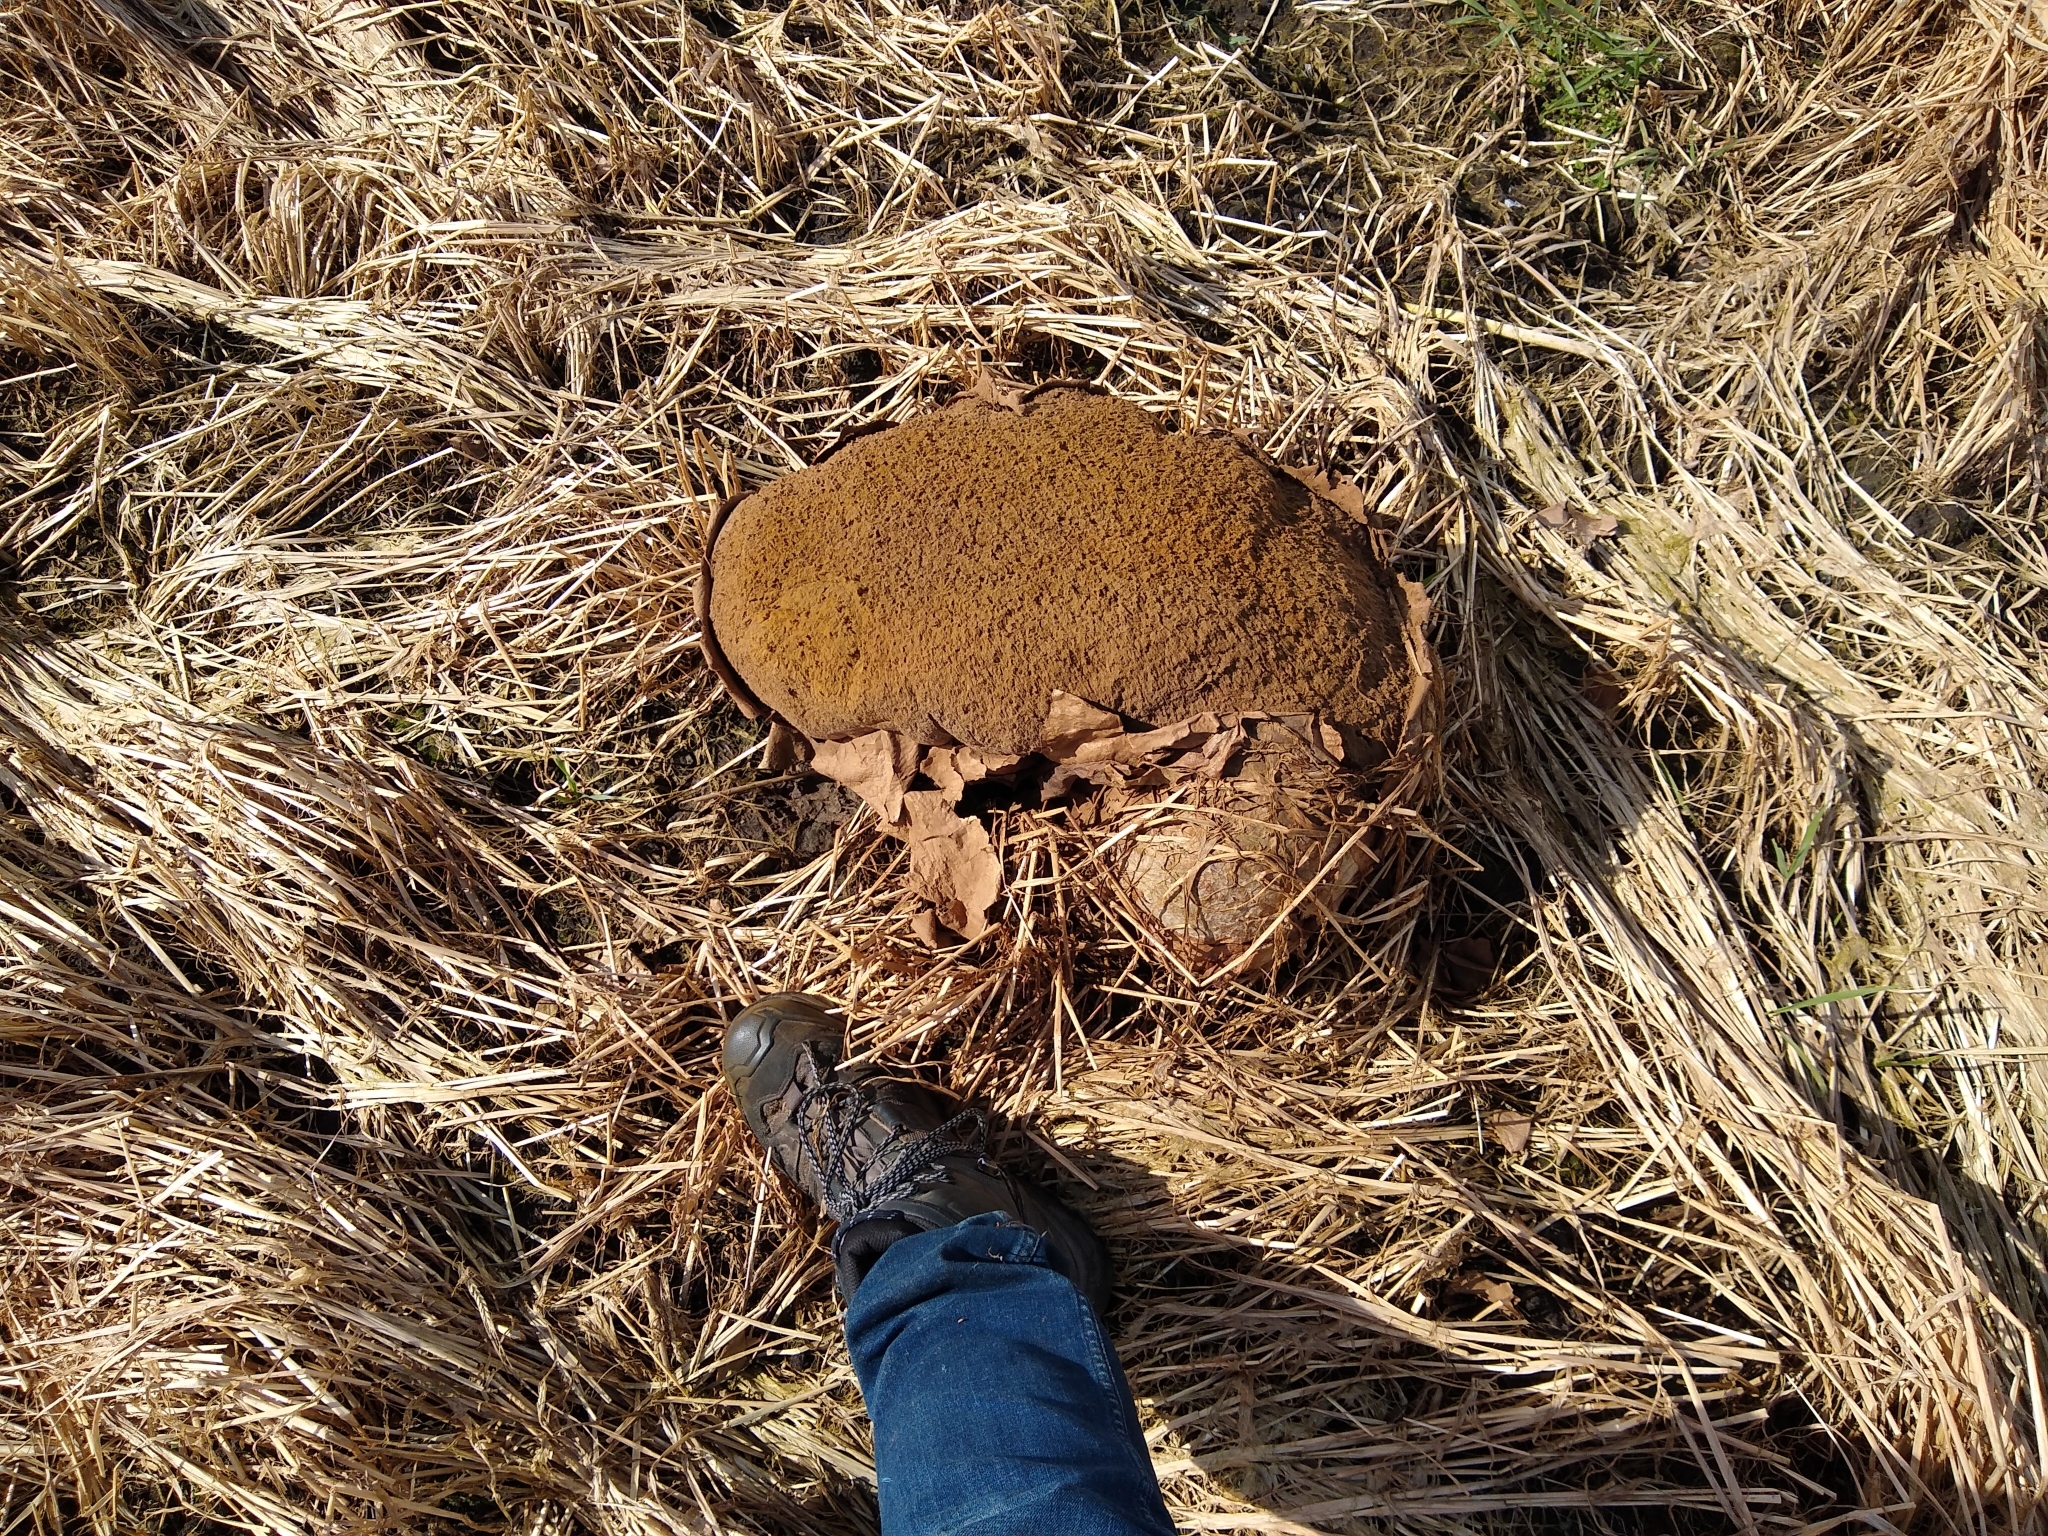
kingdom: Fungi
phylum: Basidiomycota
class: Agaricomycetes
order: Agaricales
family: Lycoperdaceae
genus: Calvatia
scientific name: Calvatia gigantea
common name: Giant puffball
